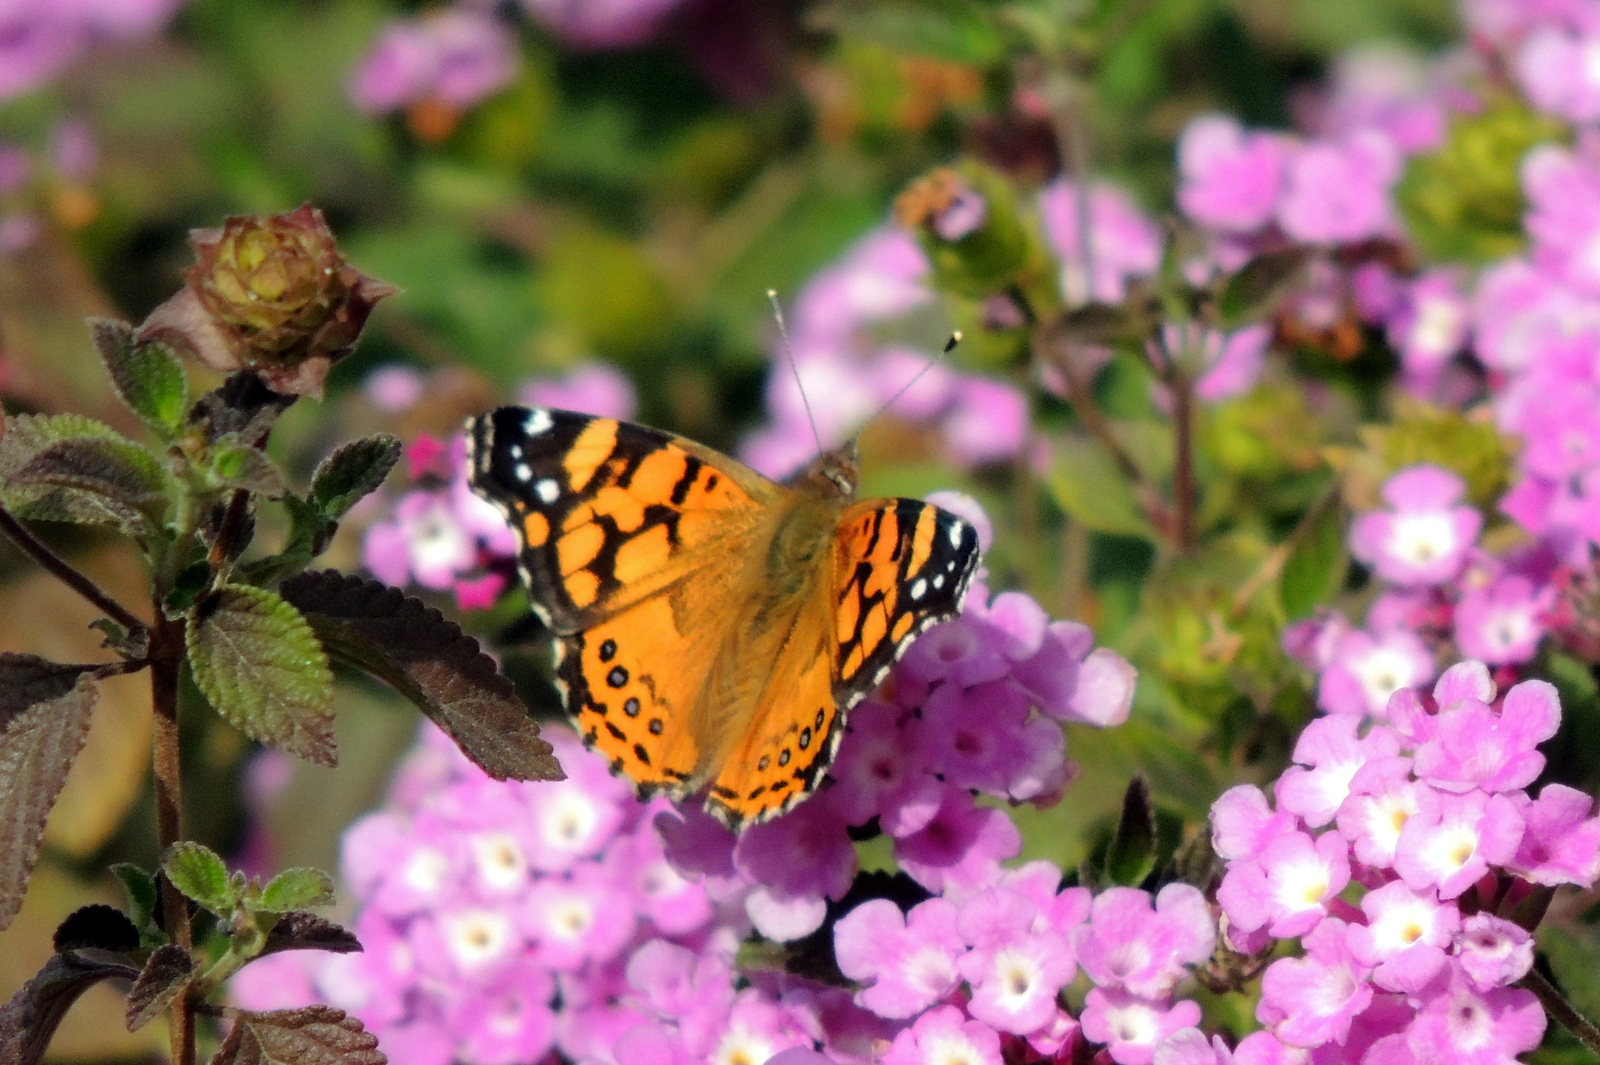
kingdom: Animalia
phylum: Arthropoda
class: Insecta
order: Lepidoptera
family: Nymphalidae
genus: Vanessa
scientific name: Vanessa annabella
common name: West coast lady
